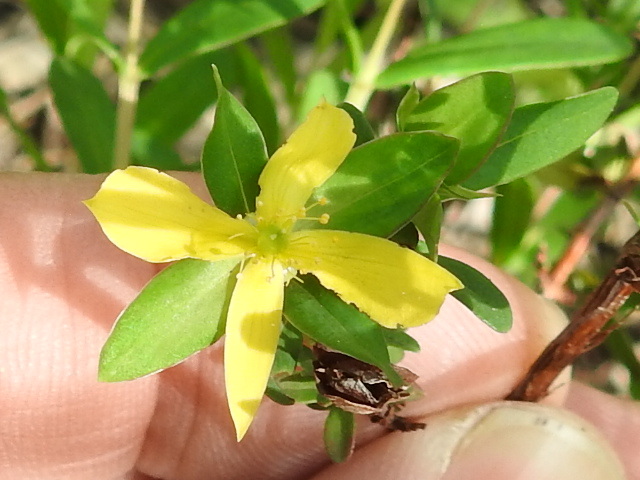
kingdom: Plantae
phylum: Tracheophyta
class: Magnoliopsida
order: Malpighiales
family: Hypericaceae
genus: Hypericum
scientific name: Hypericum hypericoides
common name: St. andrew's cross
